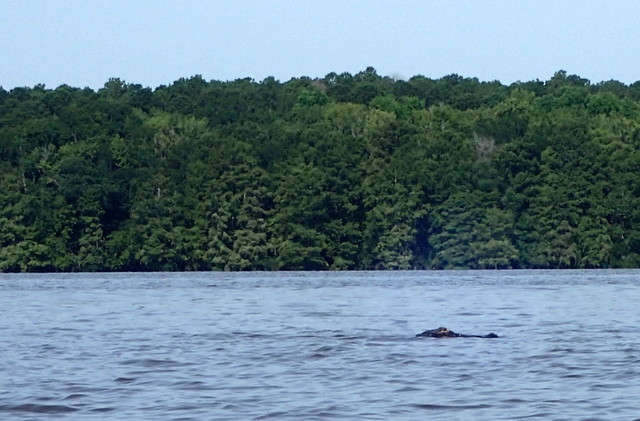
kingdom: Animalia
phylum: Chordata
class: Crocodylia
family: Alligatoridae
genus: Alligator
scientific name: Alligator mississippiensis
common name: American alligator
